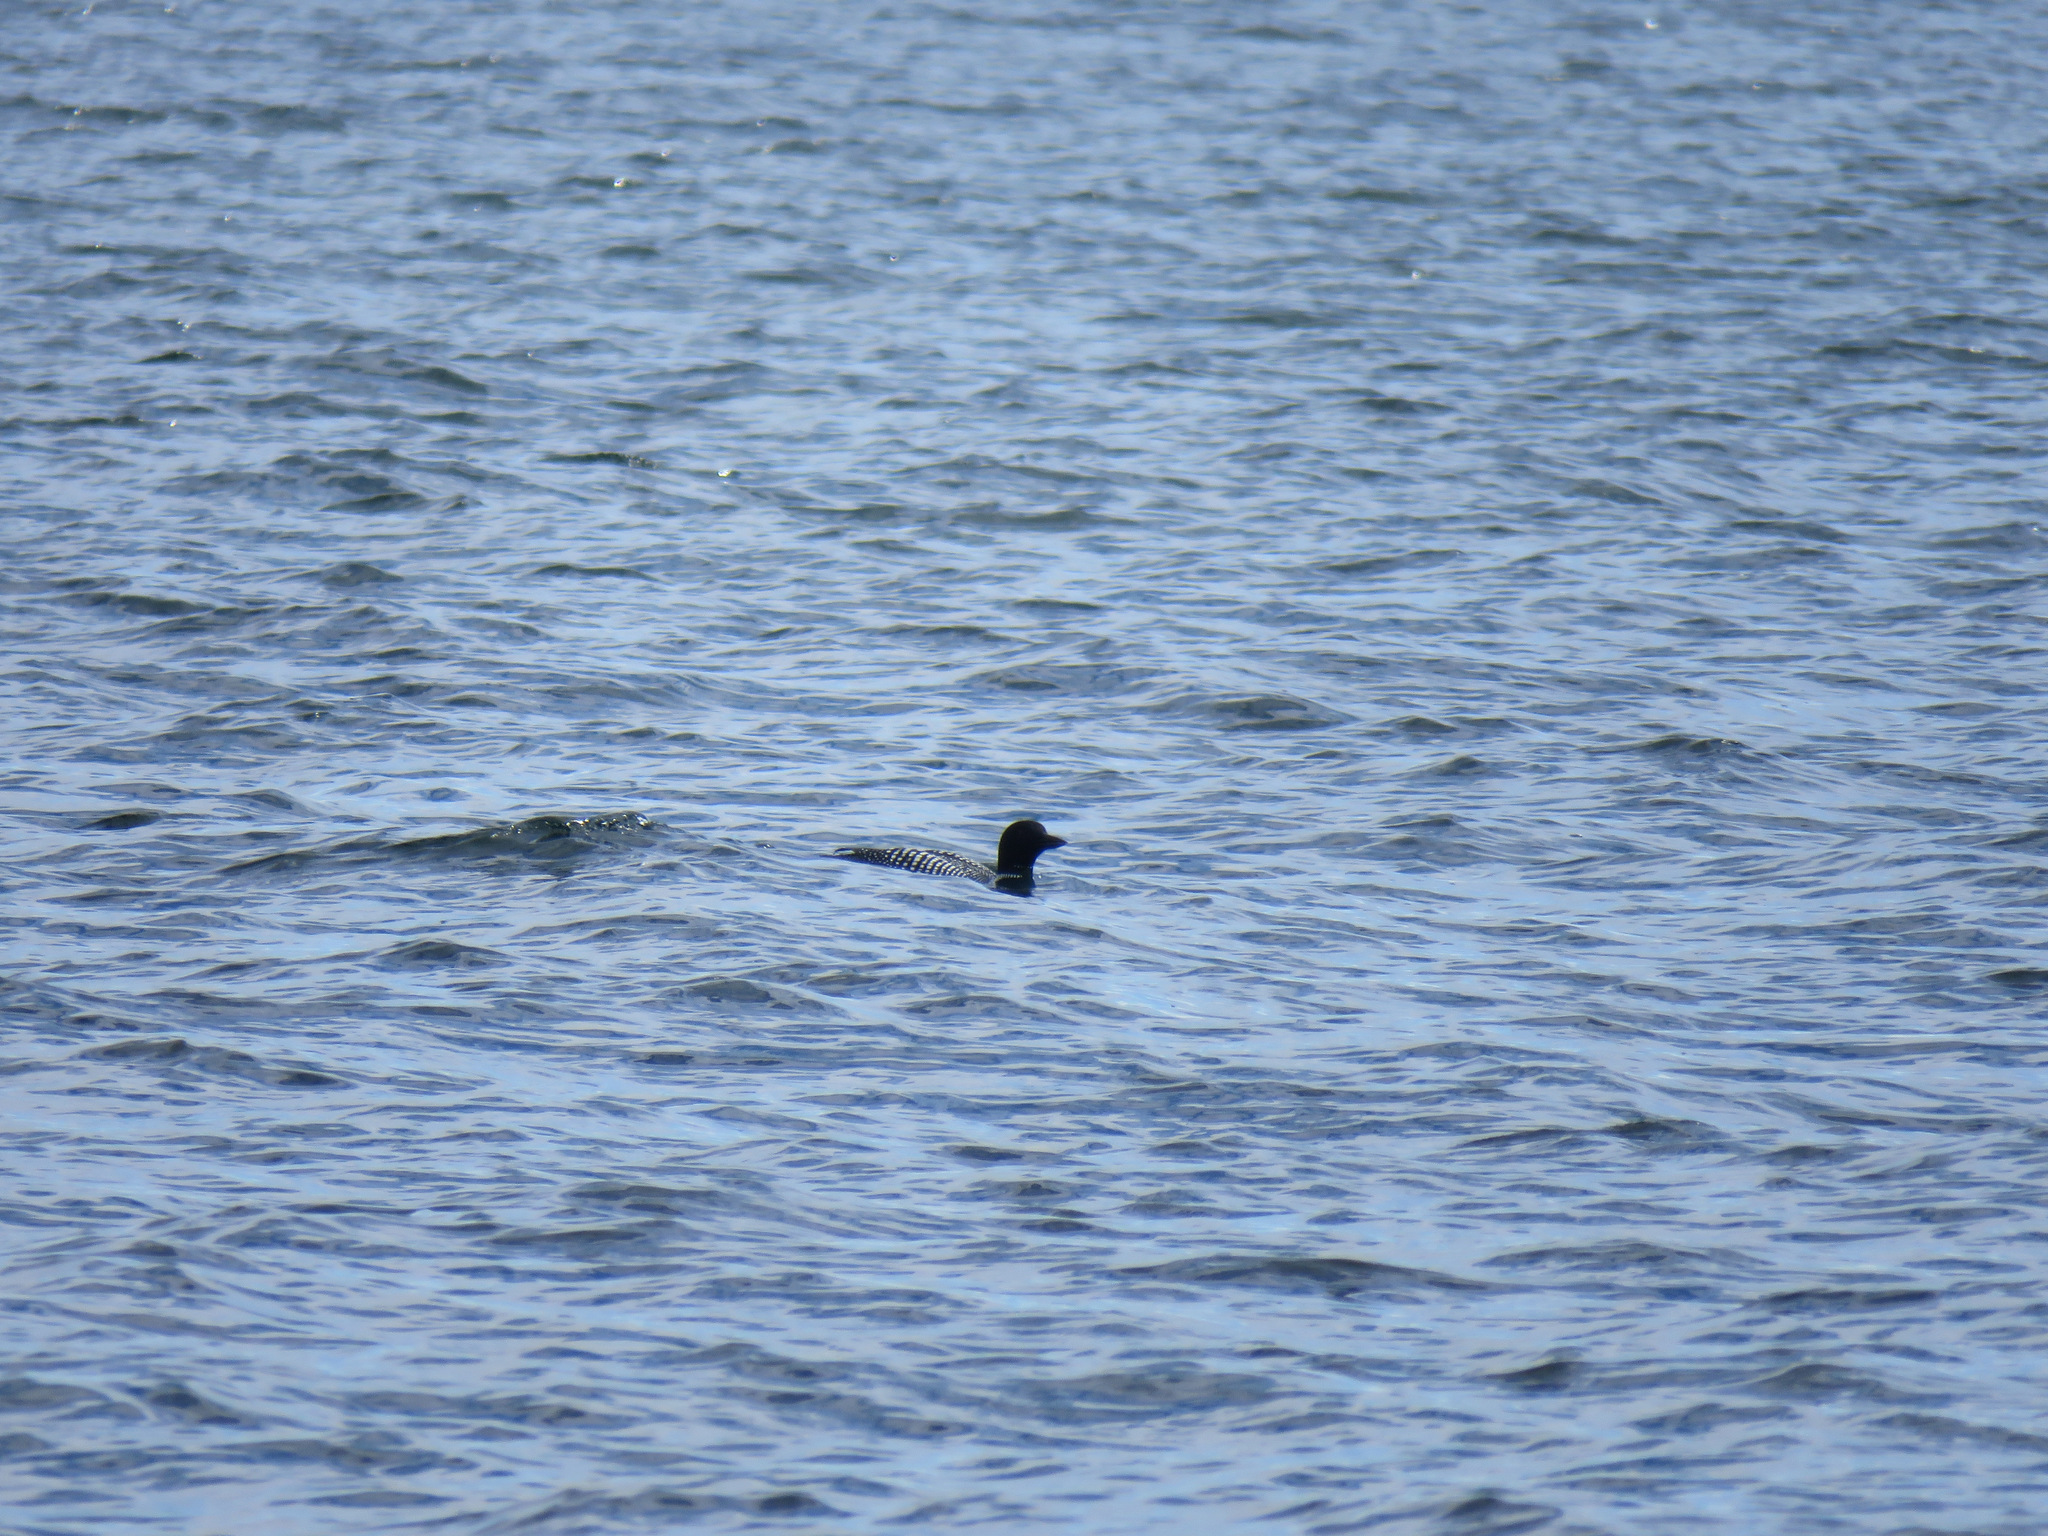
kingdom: Animalia
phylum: Chordata
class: Aves
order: Gaviiformes
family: Gaviidae
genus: Gavia
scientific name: Gavia immer
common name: Common loon
